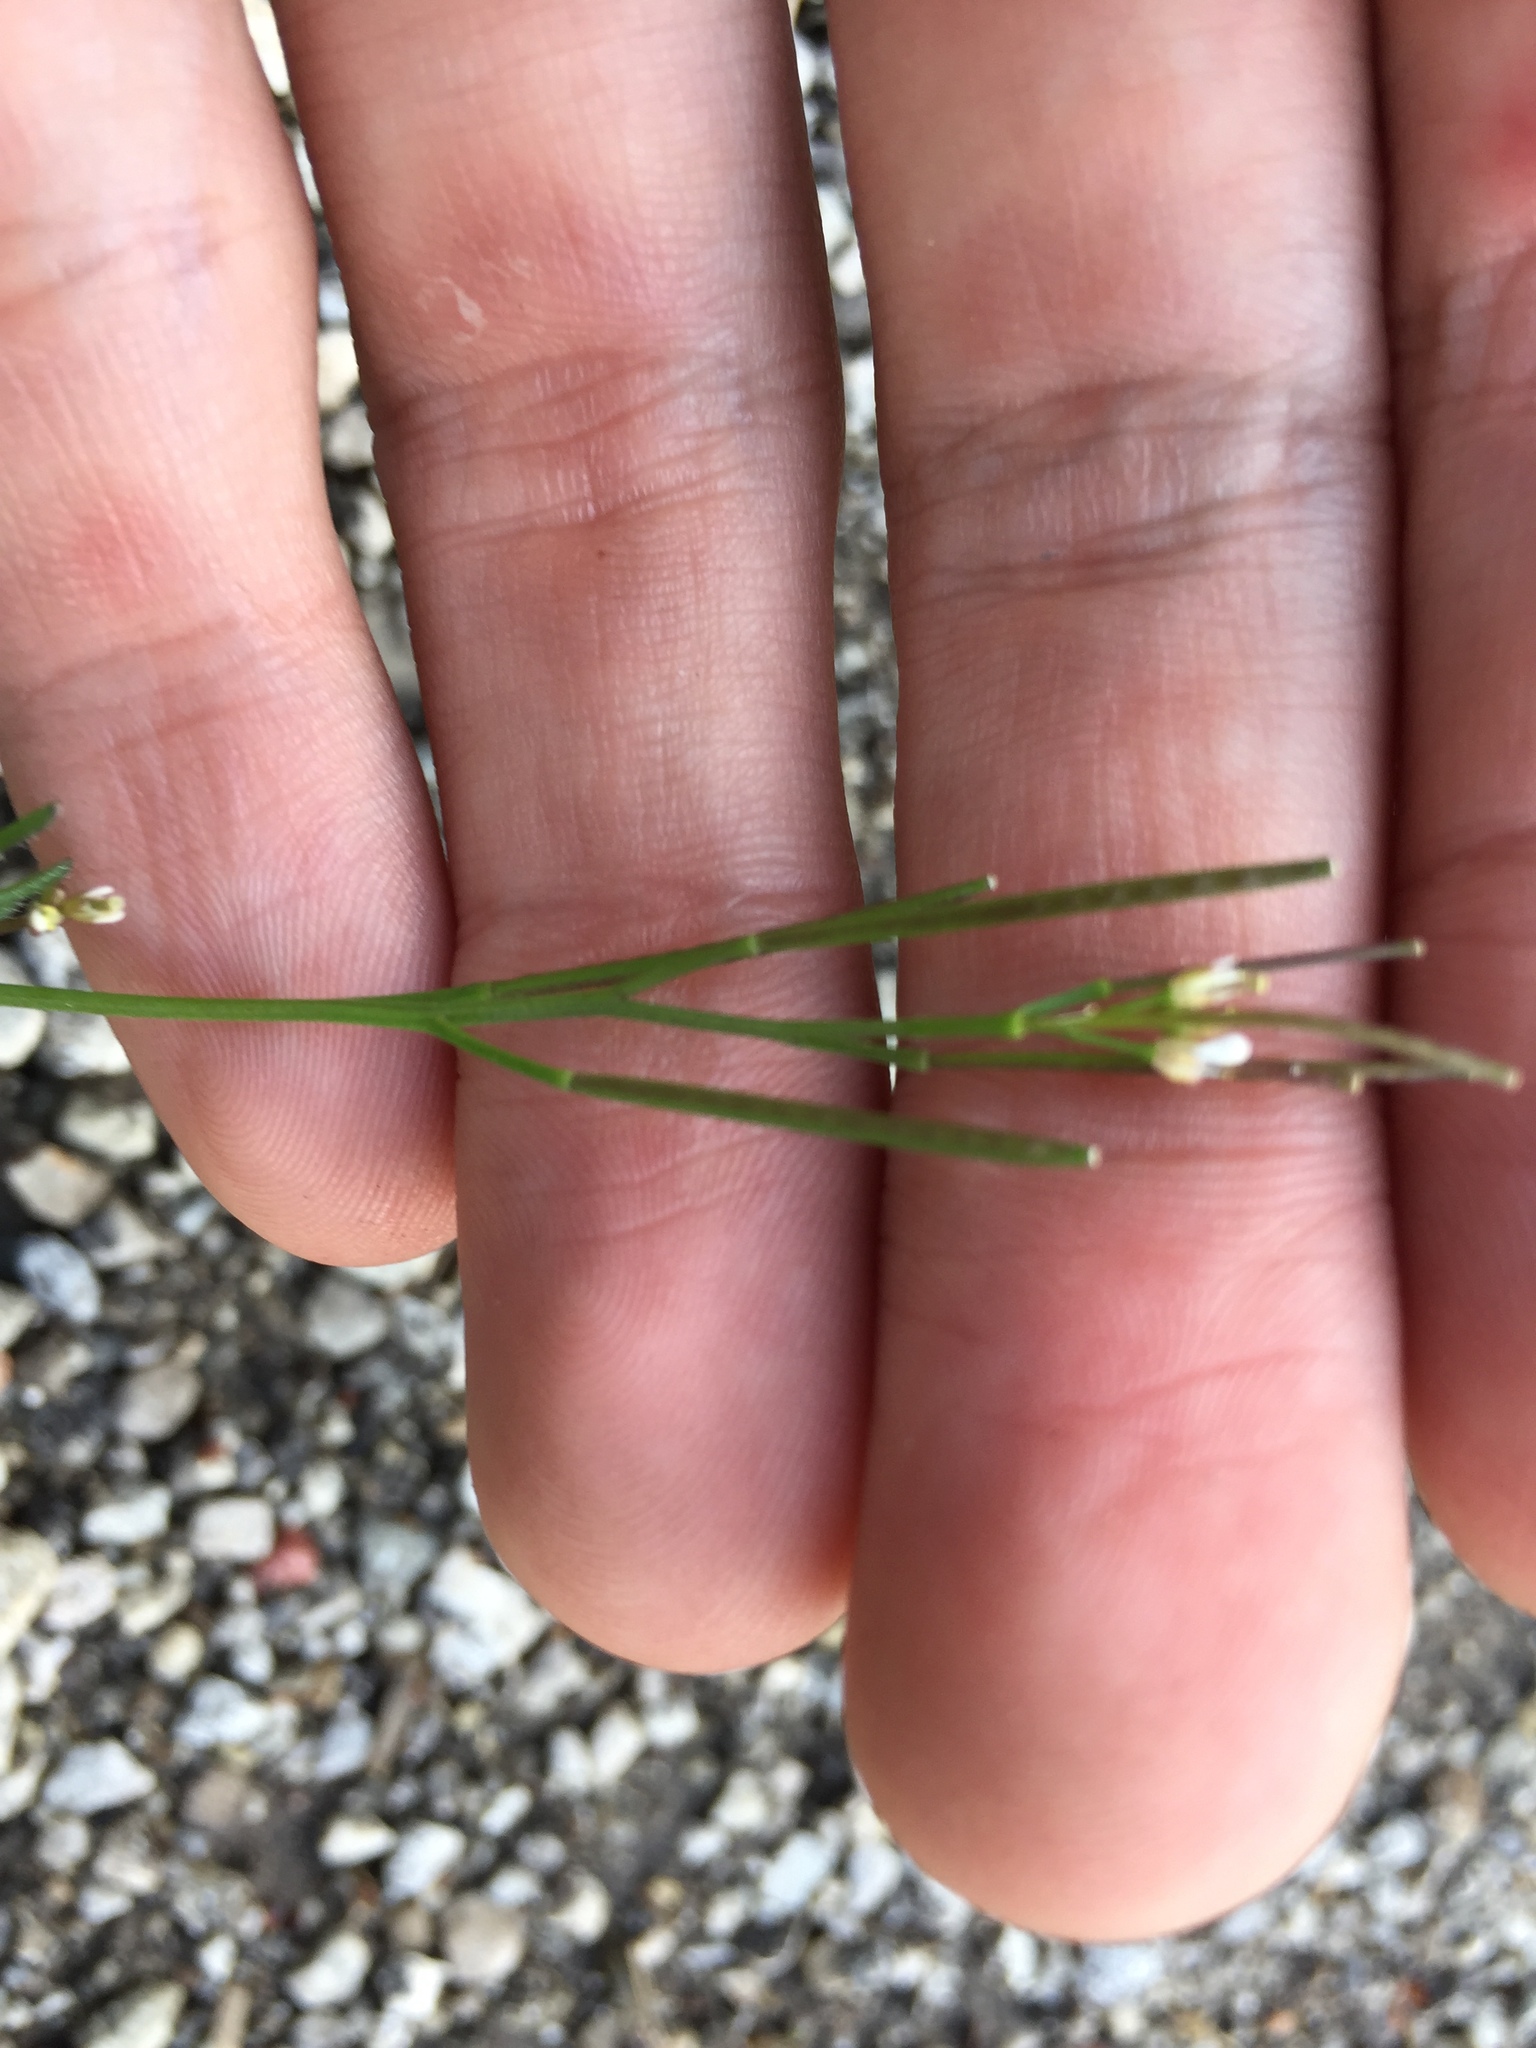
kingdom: Plantae
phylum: Tracheophyta
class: Magnoliopsida
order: Brassicales
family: Brassicaceae
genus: Cardamine
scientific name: Cardamine hirsuta
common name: Hairy bittercress
